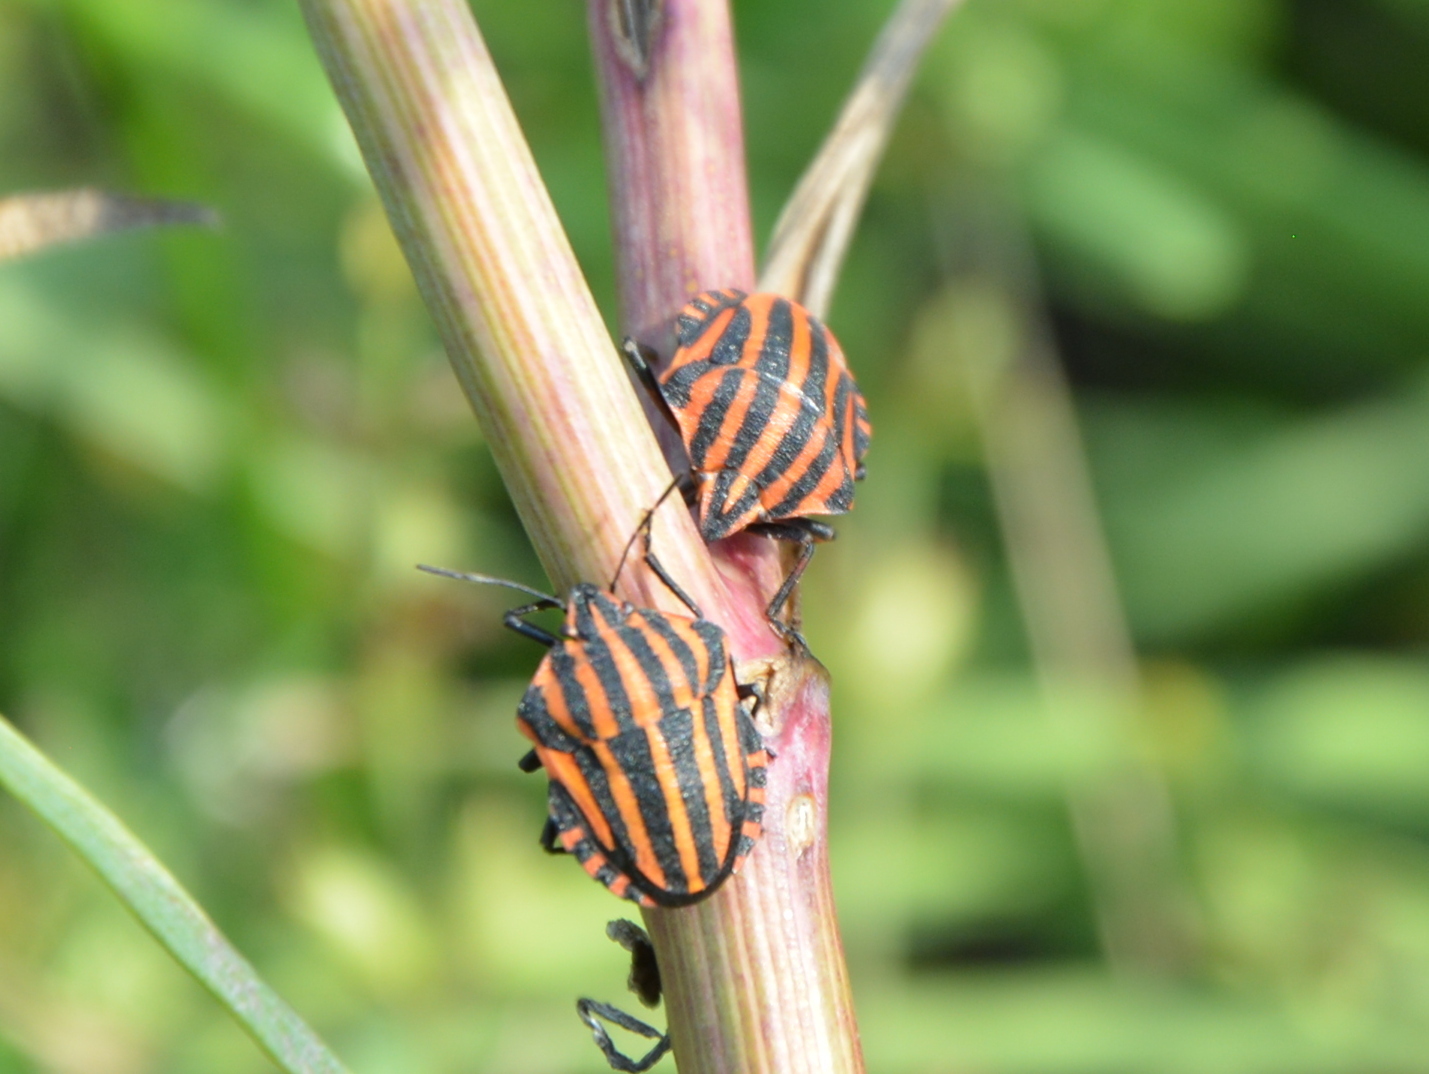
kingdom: Animalia
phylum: Arthropoda
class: Insecta
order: Hemiptera
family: Pentatomidae
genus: Graphosoma
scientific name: Graphosoma italicum
